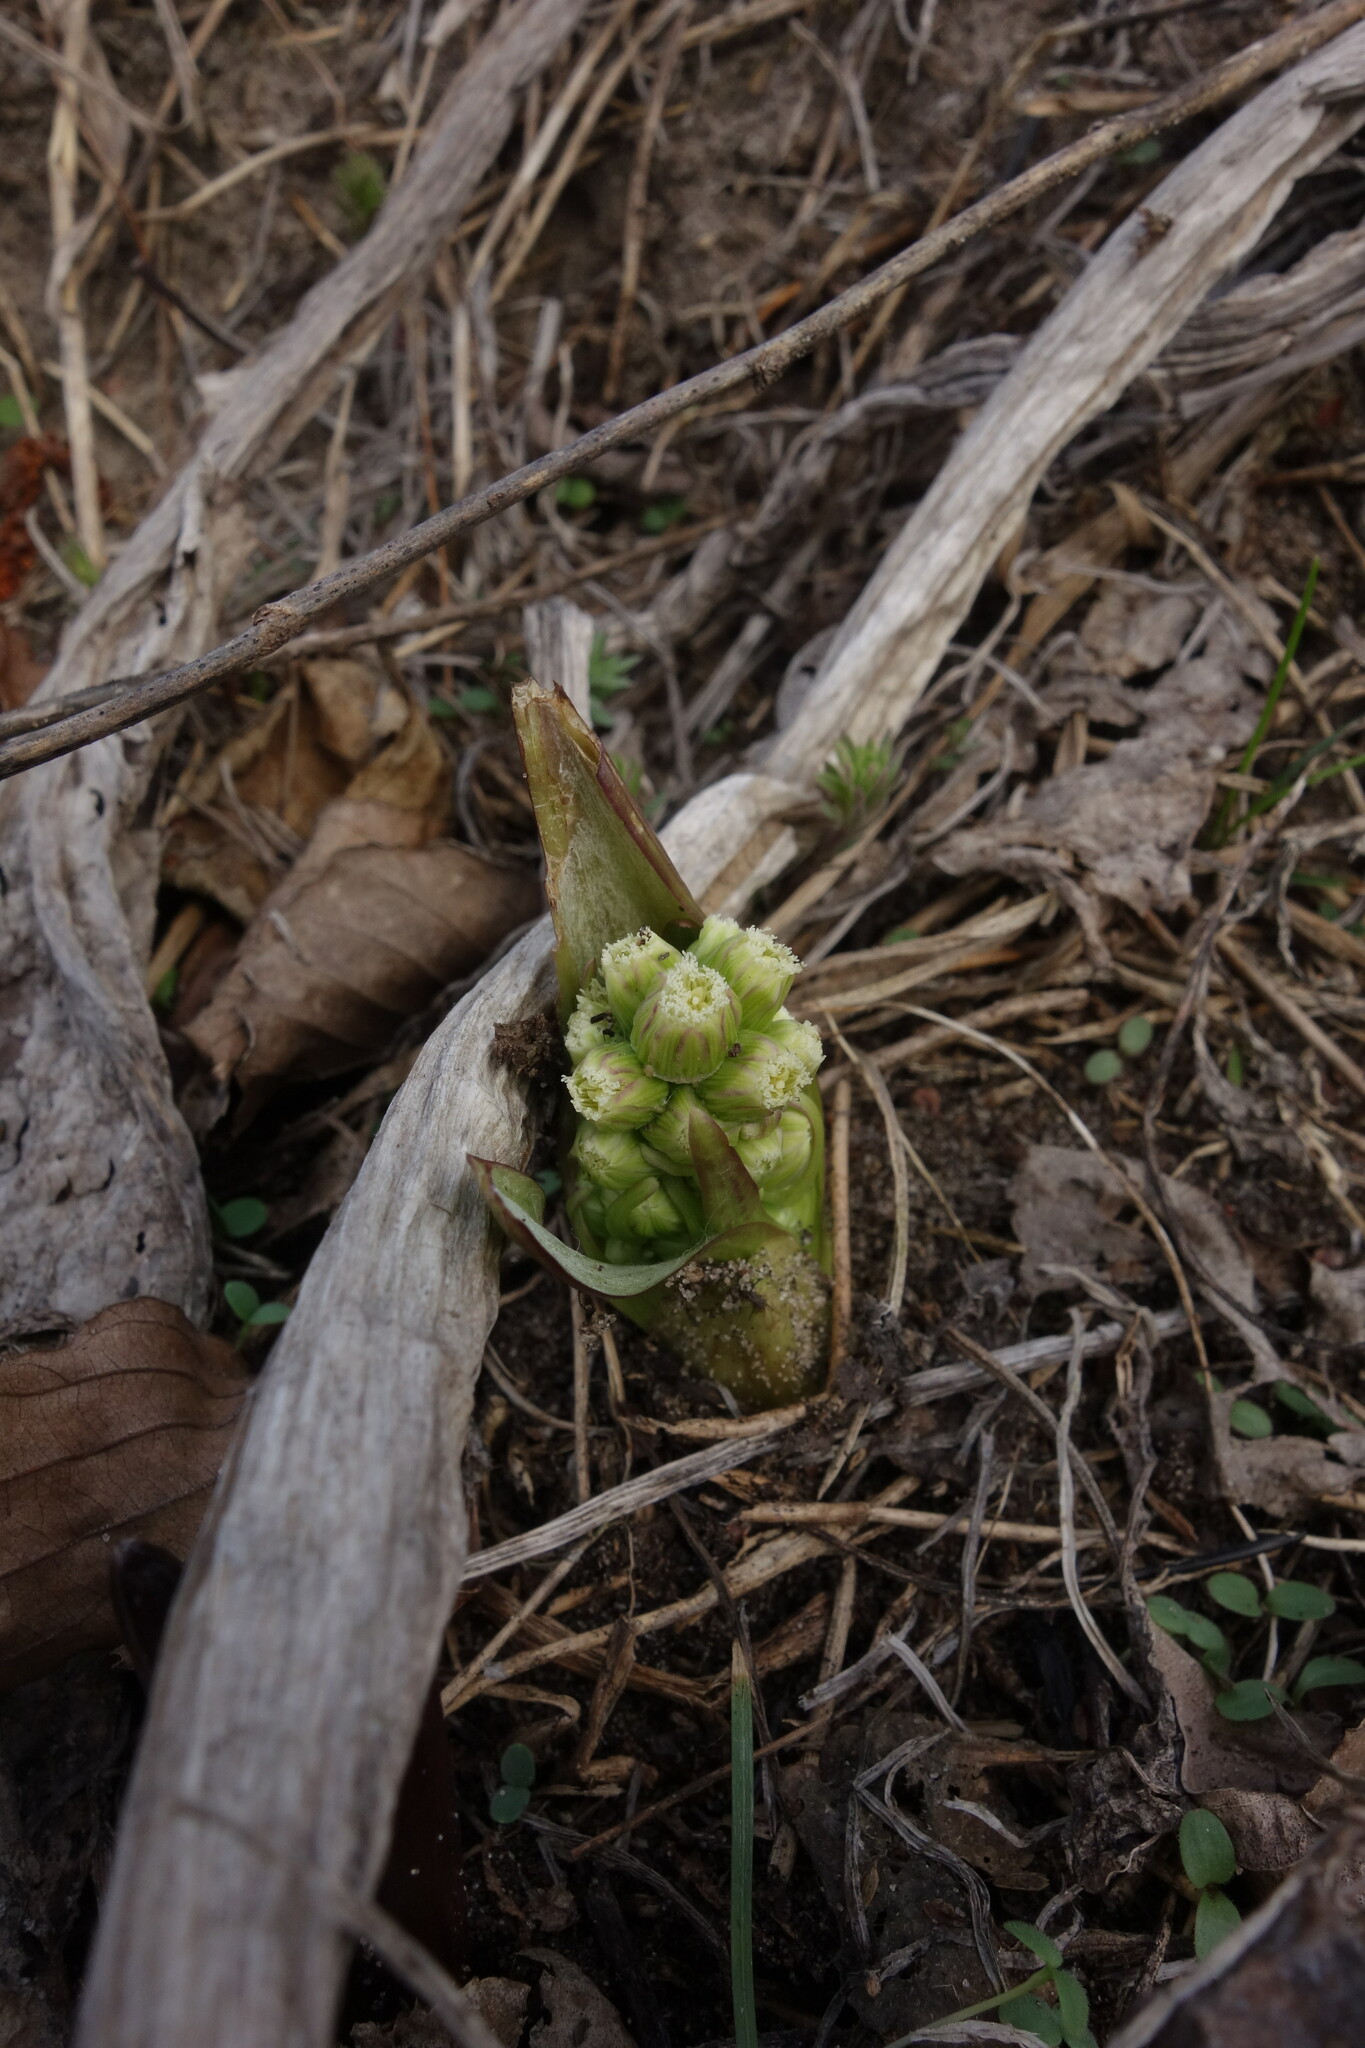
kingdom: Plantae
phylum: Tracheophyta
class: Magnoliopsida
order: Asterales
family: Asteraceae
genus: Petasites
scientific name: Petasites spurius
